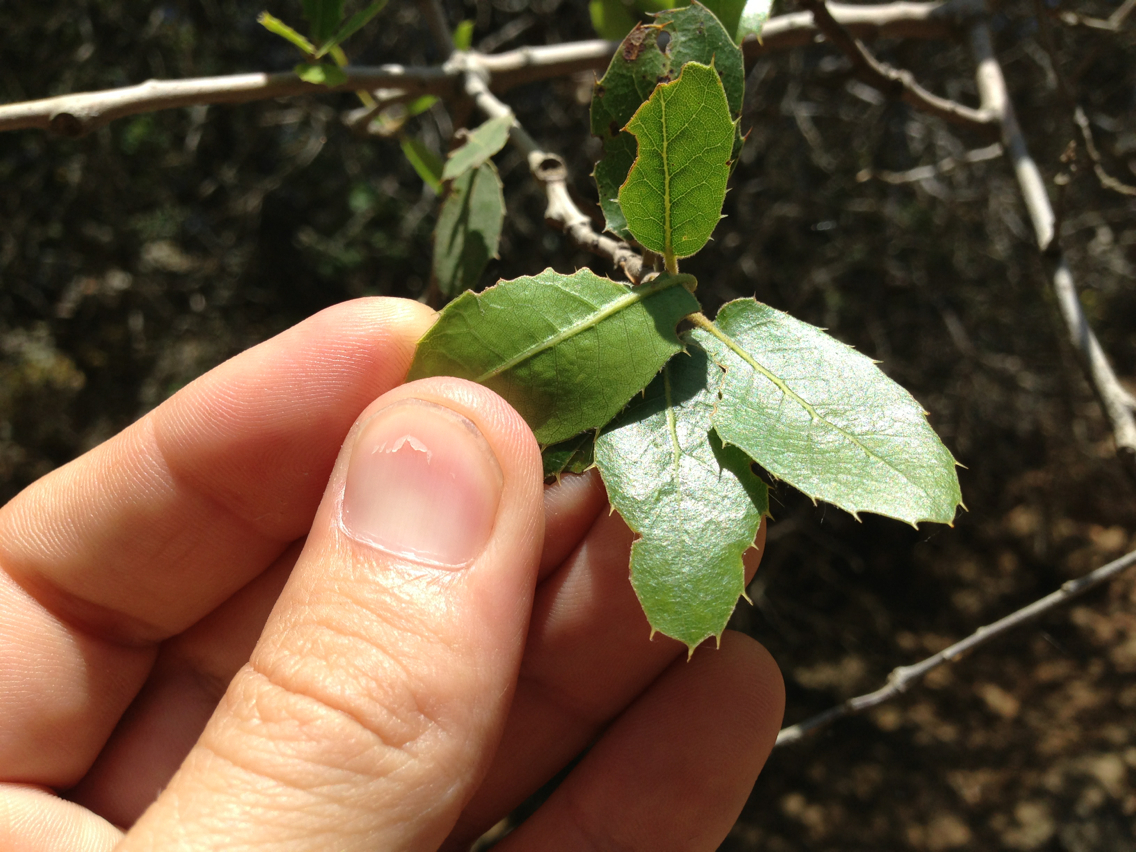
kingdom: Plantae
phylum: Tracheophyta
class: Magnoliopsida
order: Fagales
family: Fagaceae
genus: Quercus
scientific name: Quercus wislizeni
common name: Interior live oak
